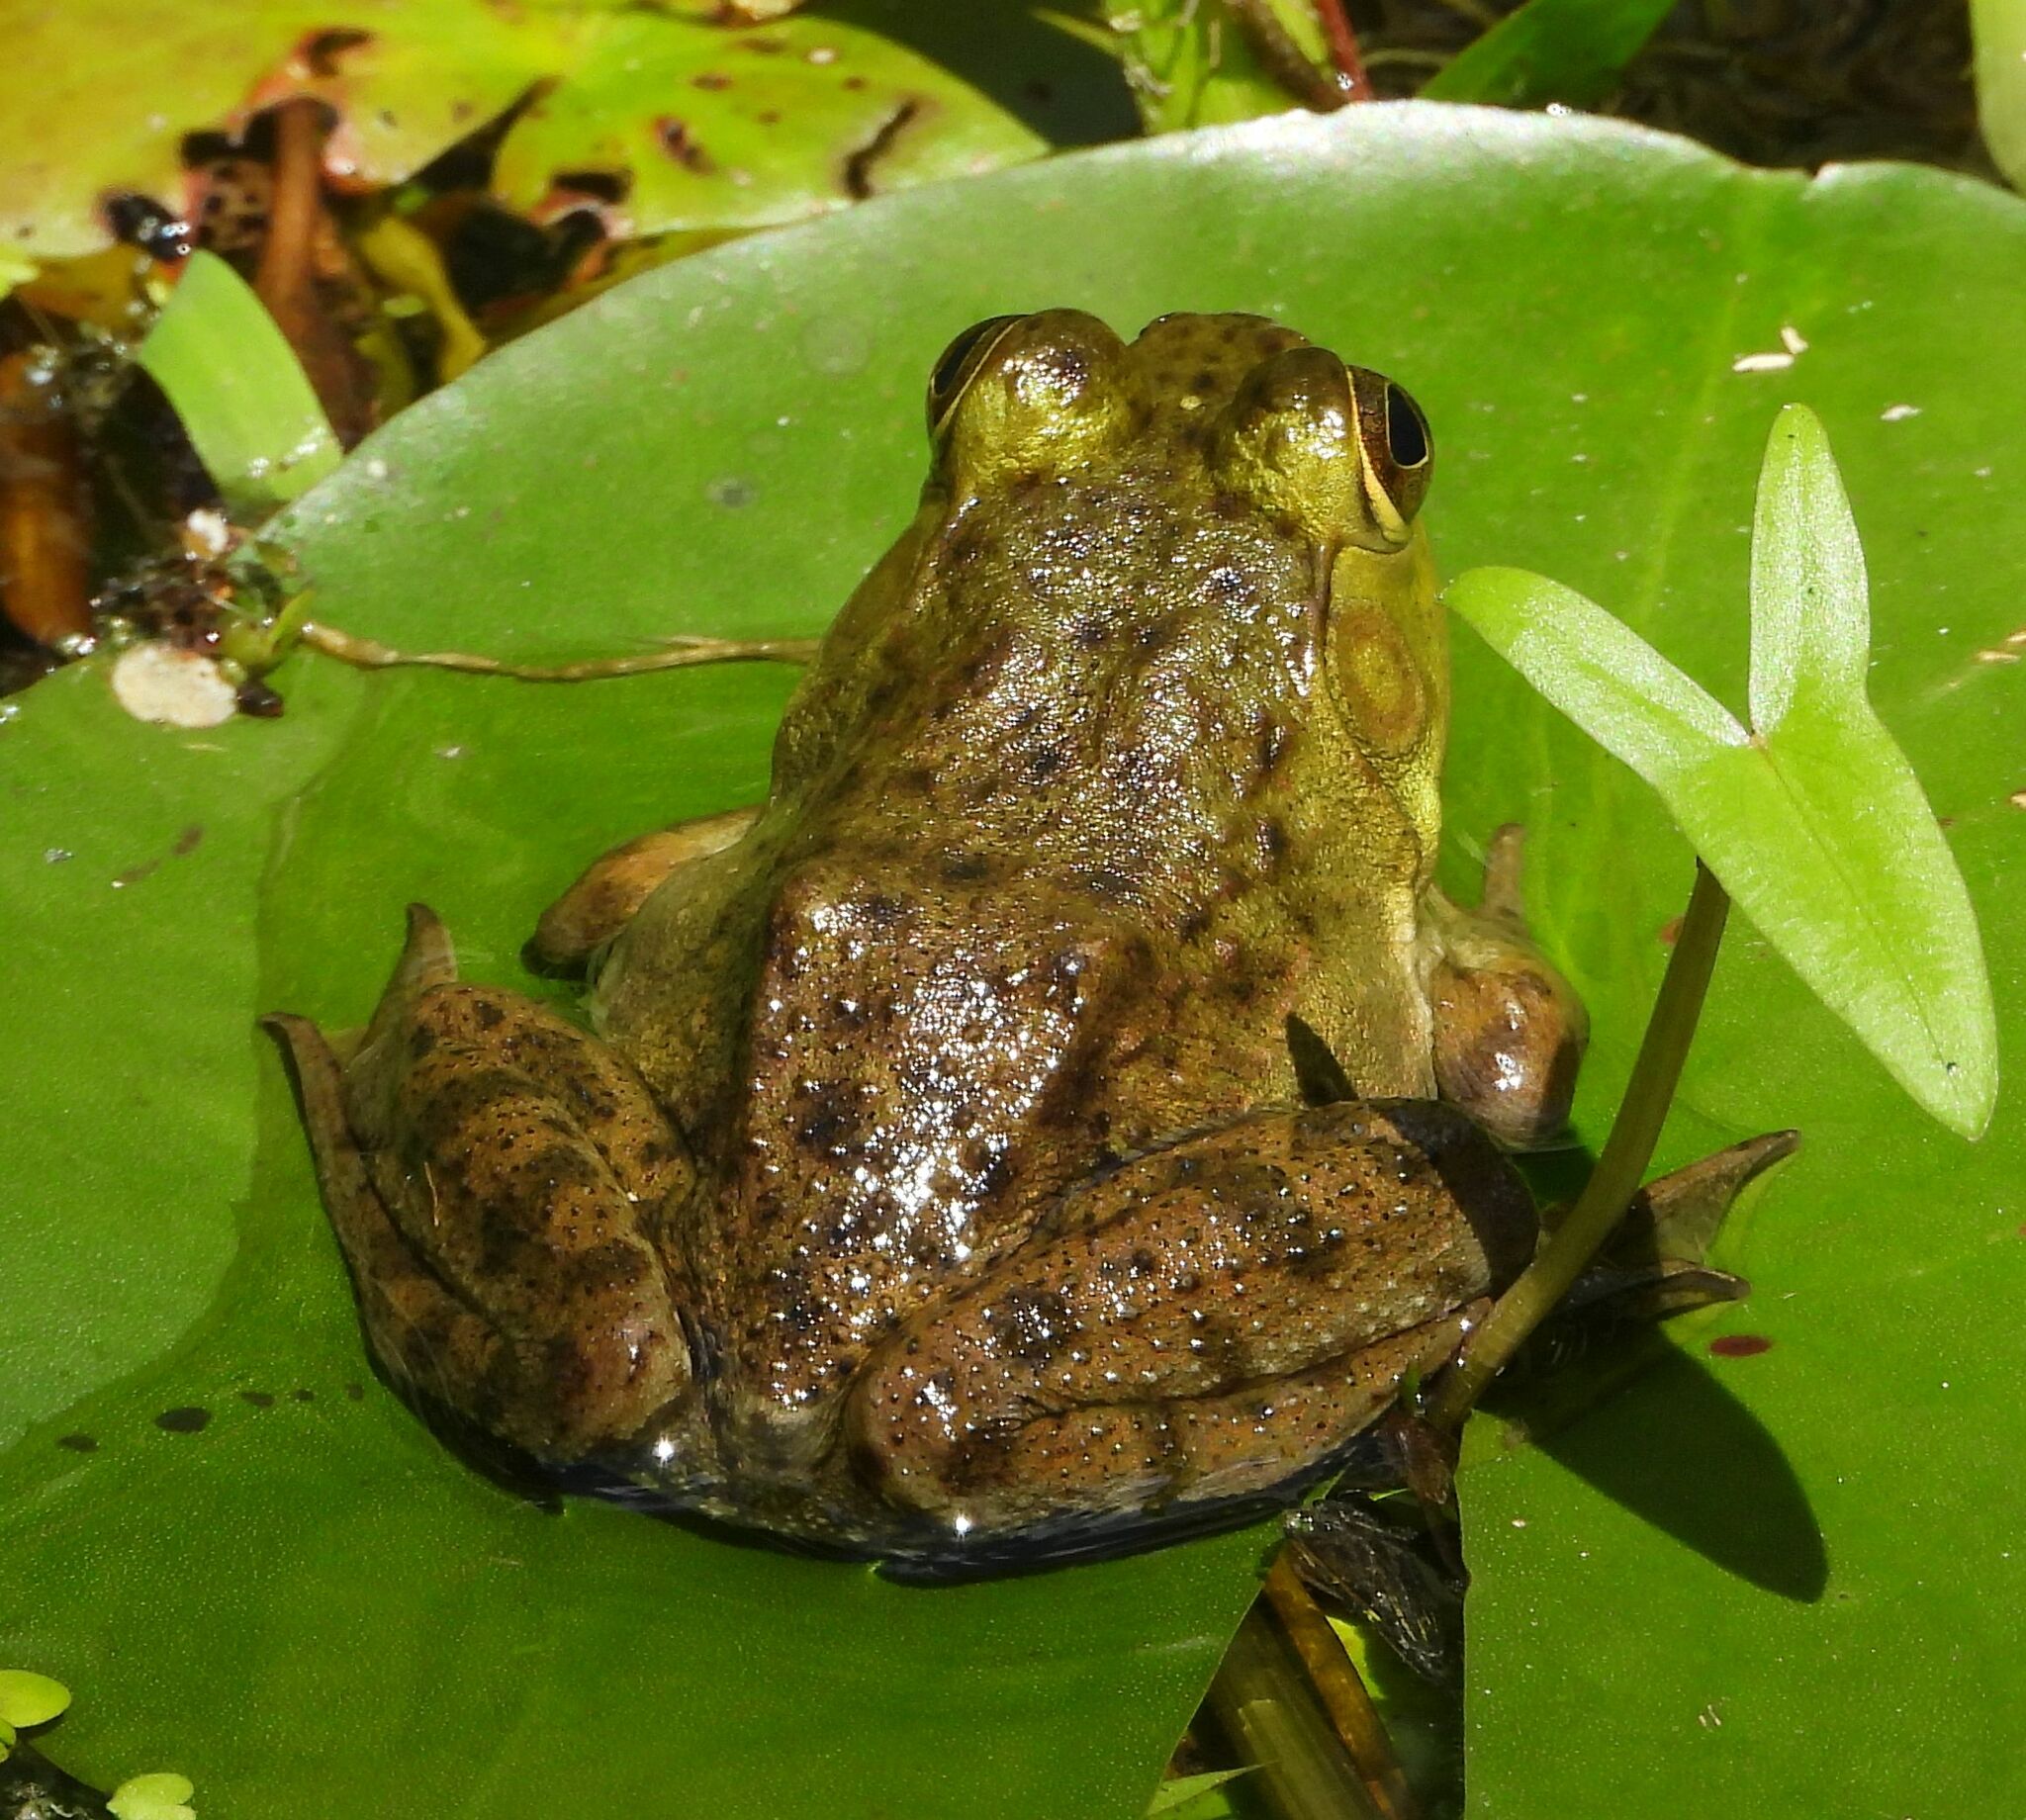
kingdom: Animalia
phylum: Chordata
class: Amphibia
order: Anura
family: Ranidae
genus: Lithobates
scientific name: Lithobates catesbeianus
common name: American bullfrog
